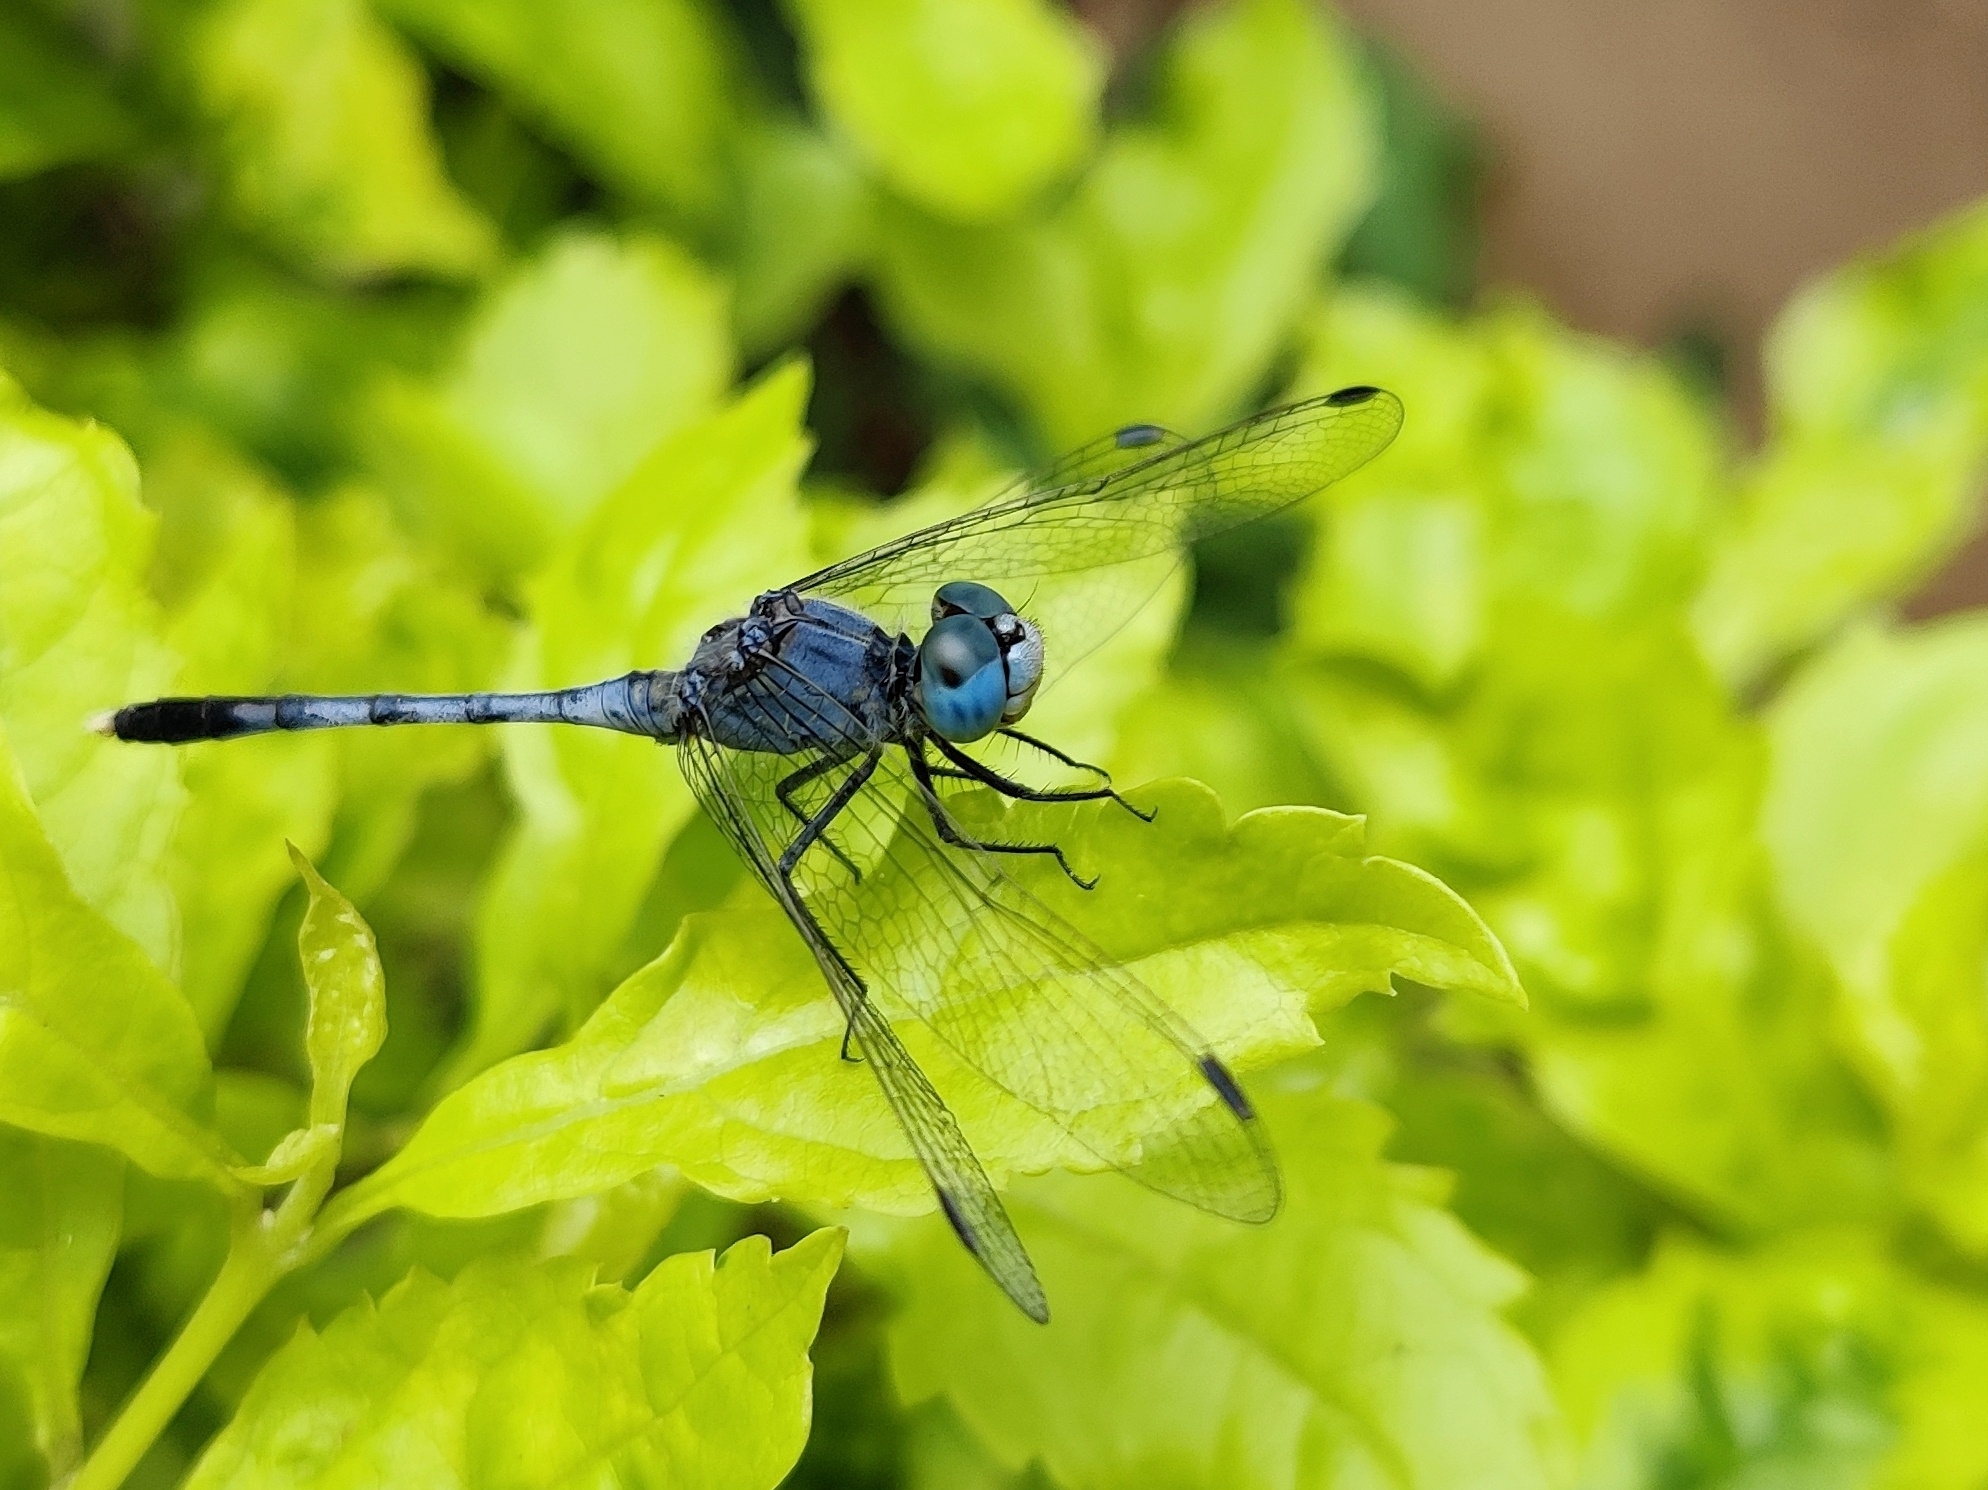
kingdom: Animalia
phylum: Arthropoda
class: Insecta
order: Odonata
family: Libellulidae
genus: Diplacodes
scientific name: Diplacodes trivialis
